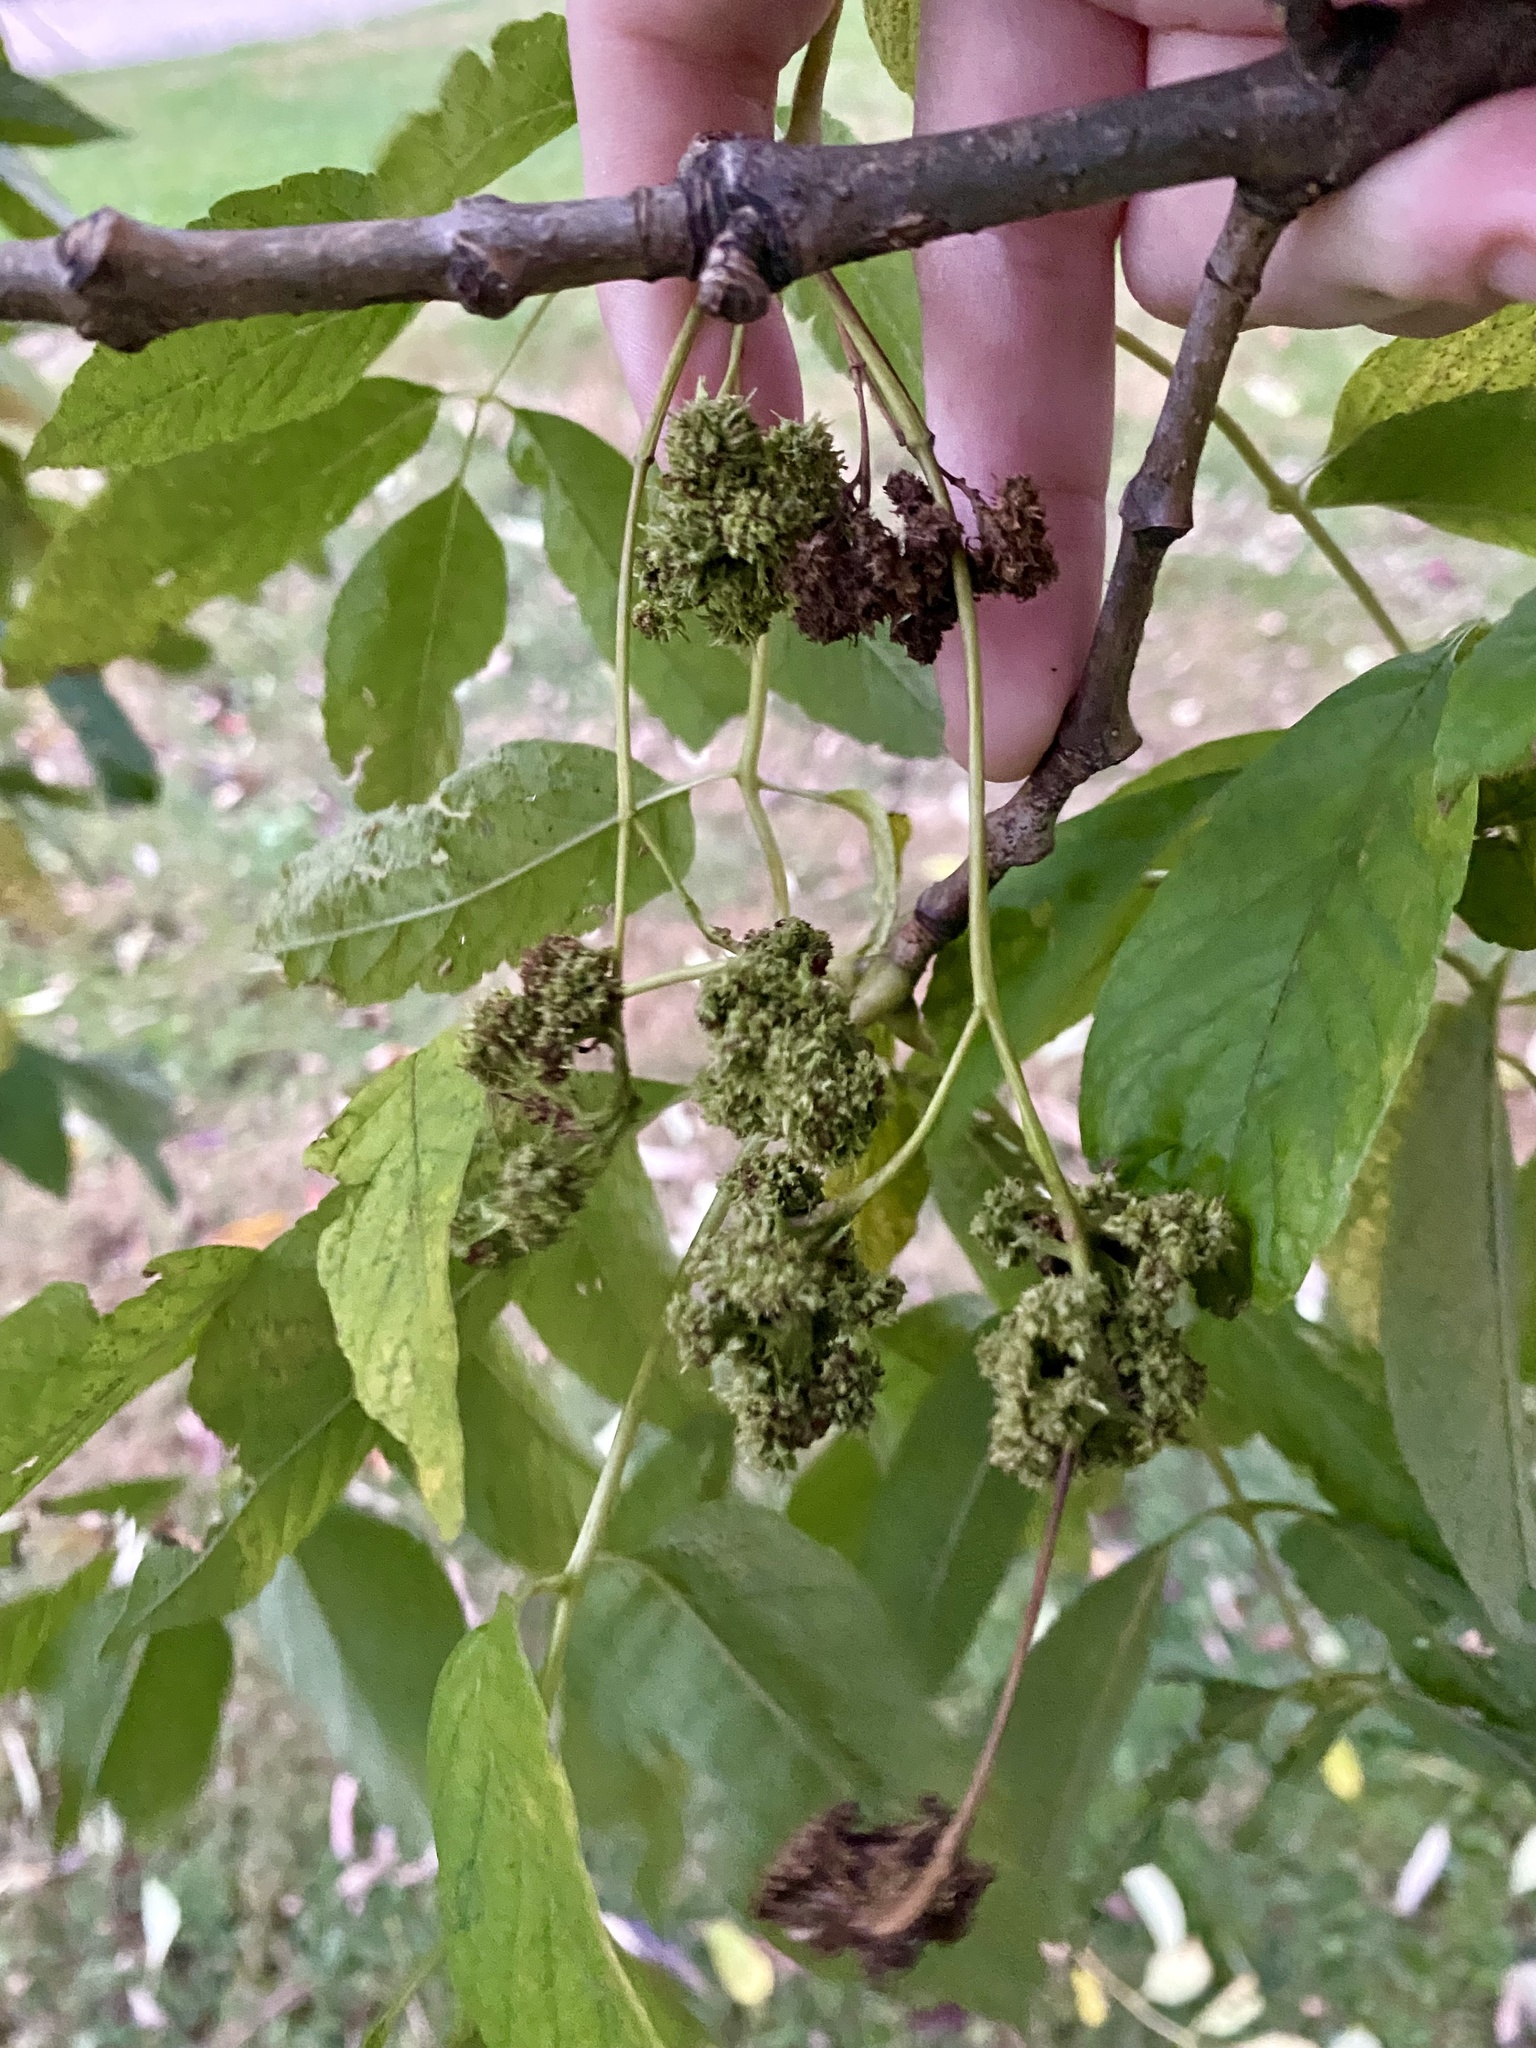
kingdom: Animalia
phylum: Arthropoda
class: Arachnida
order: Trombidiformes
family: Eriophyidae
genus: Aceria
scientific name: Aceria fraxiniflora
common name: Ash flower gall mite
